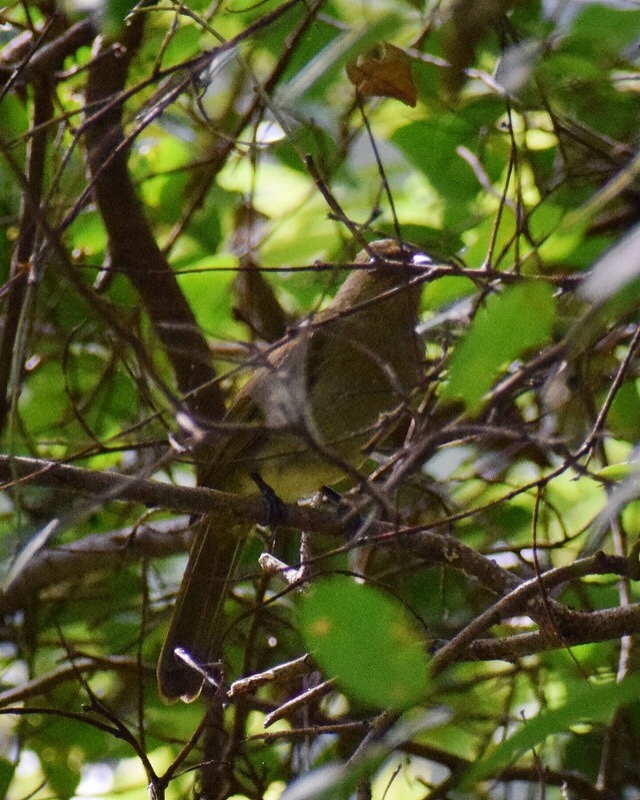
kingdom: Animalia
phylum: Chordata
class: Aves
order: Passeriformes
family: Pycnonotidae
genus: Chlorocichla
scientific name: Chlorocichla flaviventris
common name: Yellow-bellied greenbul
